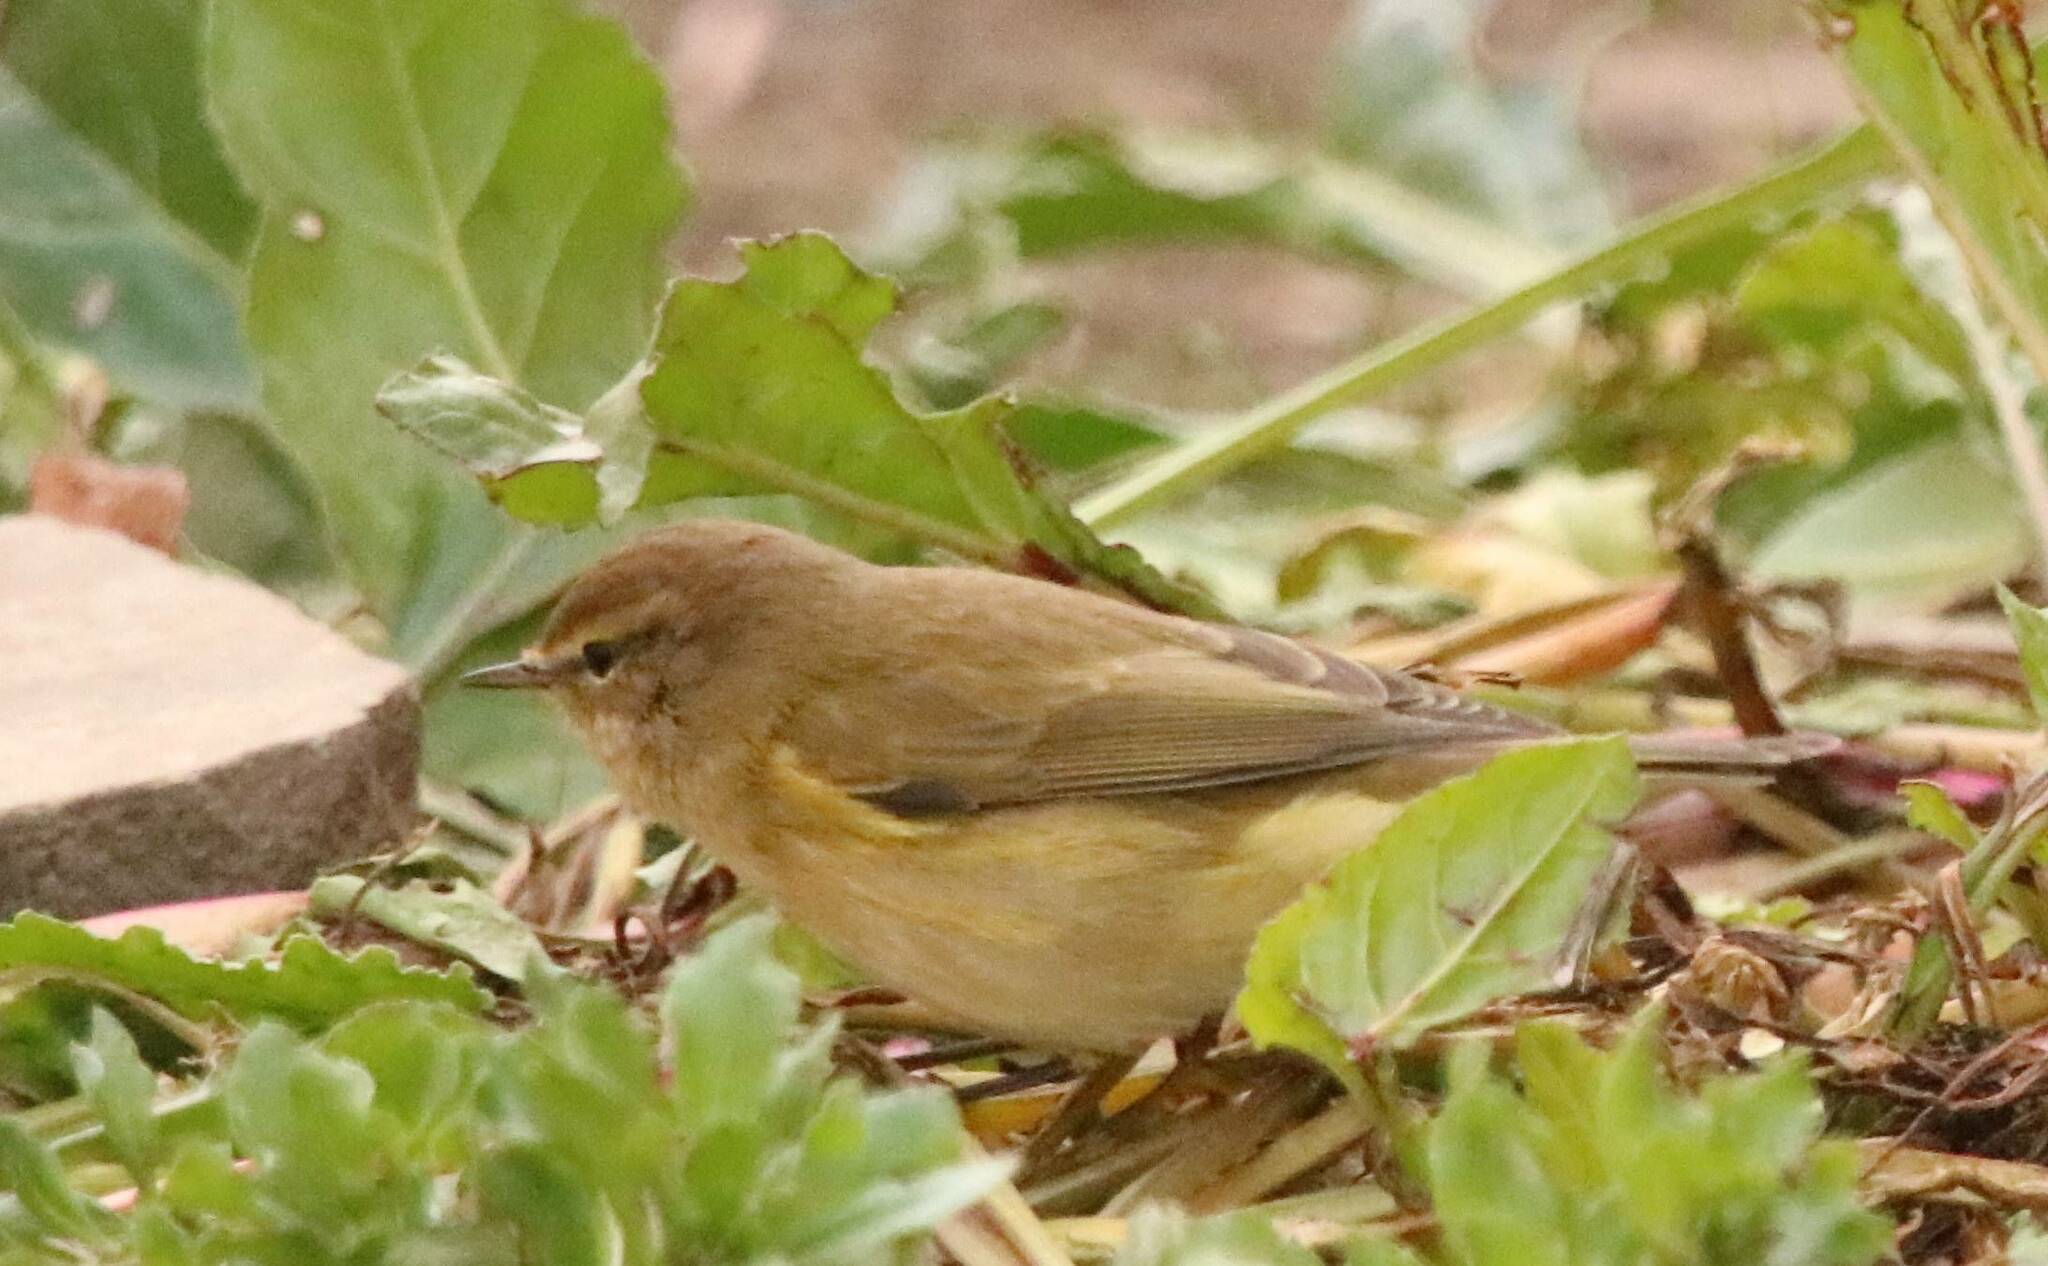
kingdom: Animalia
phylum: Chordata
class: Aves
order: Passeriformes
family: Phylloscopidae
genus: Phylloscopus
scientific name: Phylloscopus collybita
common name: Common chiffchaff
